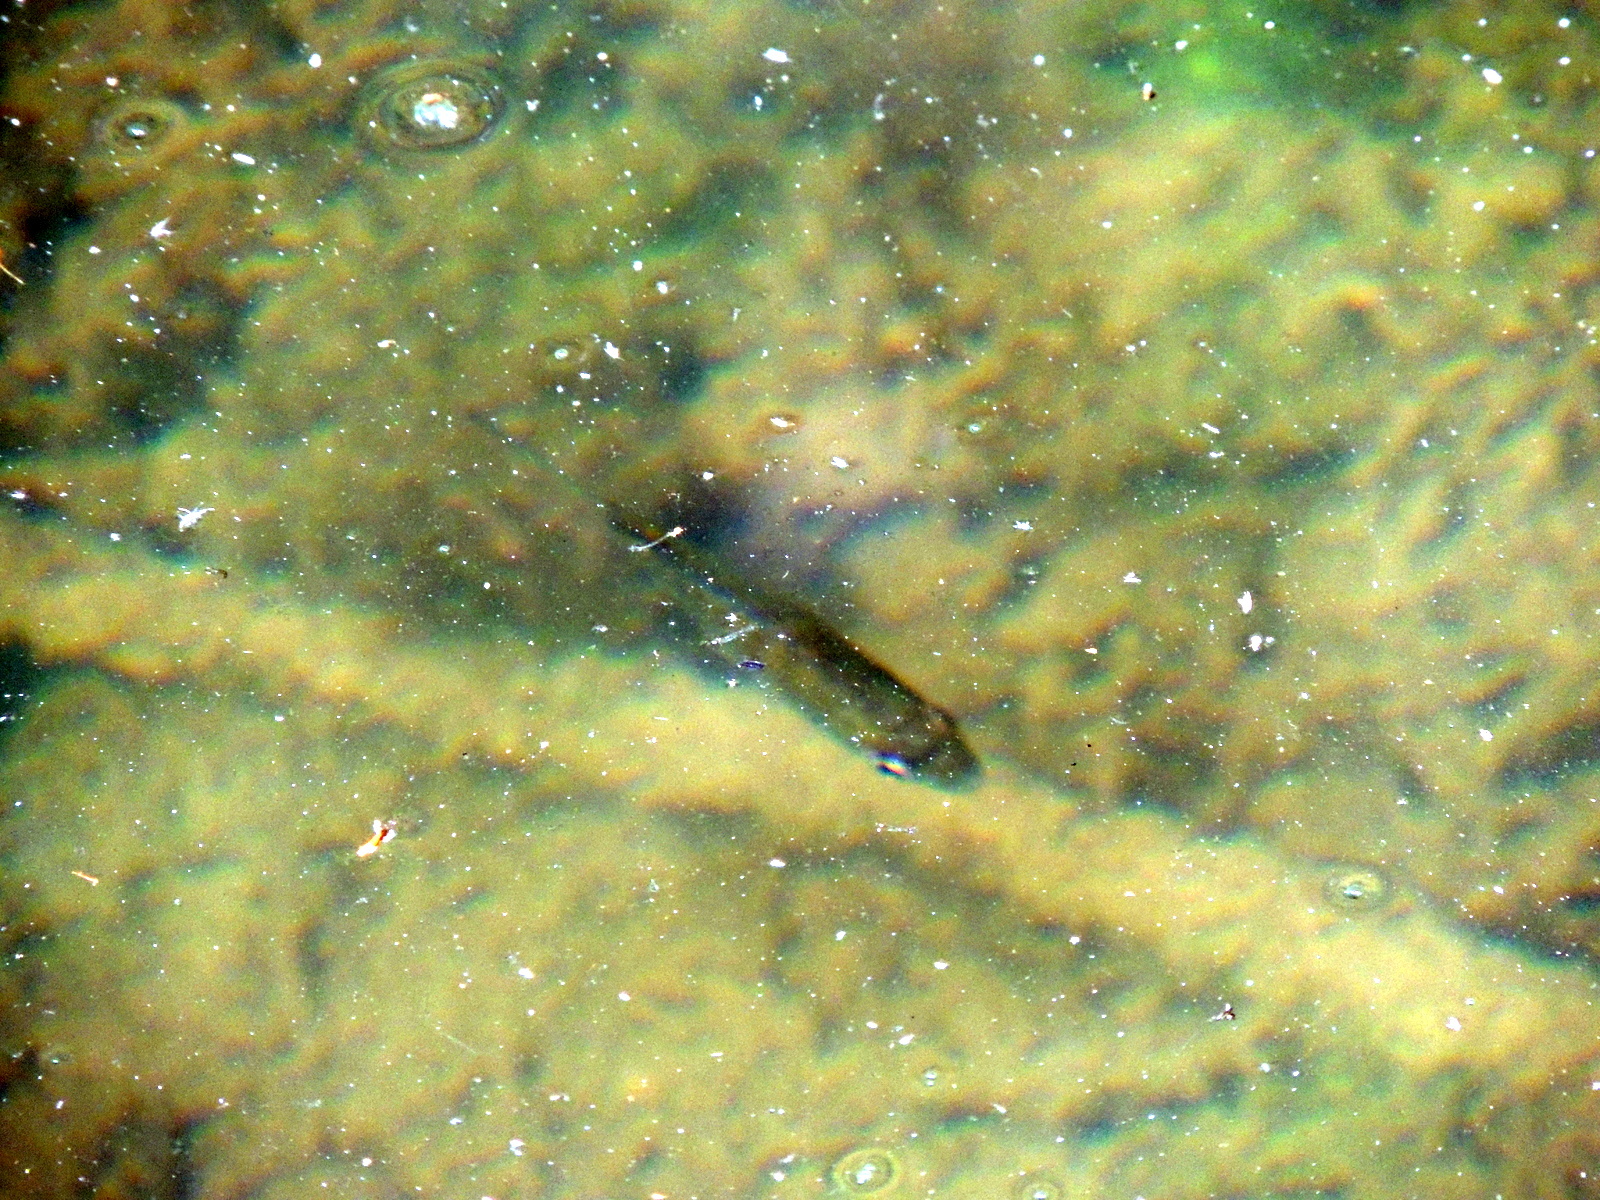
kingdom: Animalia
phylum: Chordata
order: Perciformes
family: Centrarchidae
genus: Lepomis
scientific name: Lepomis macrochirus
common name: Bluegill
